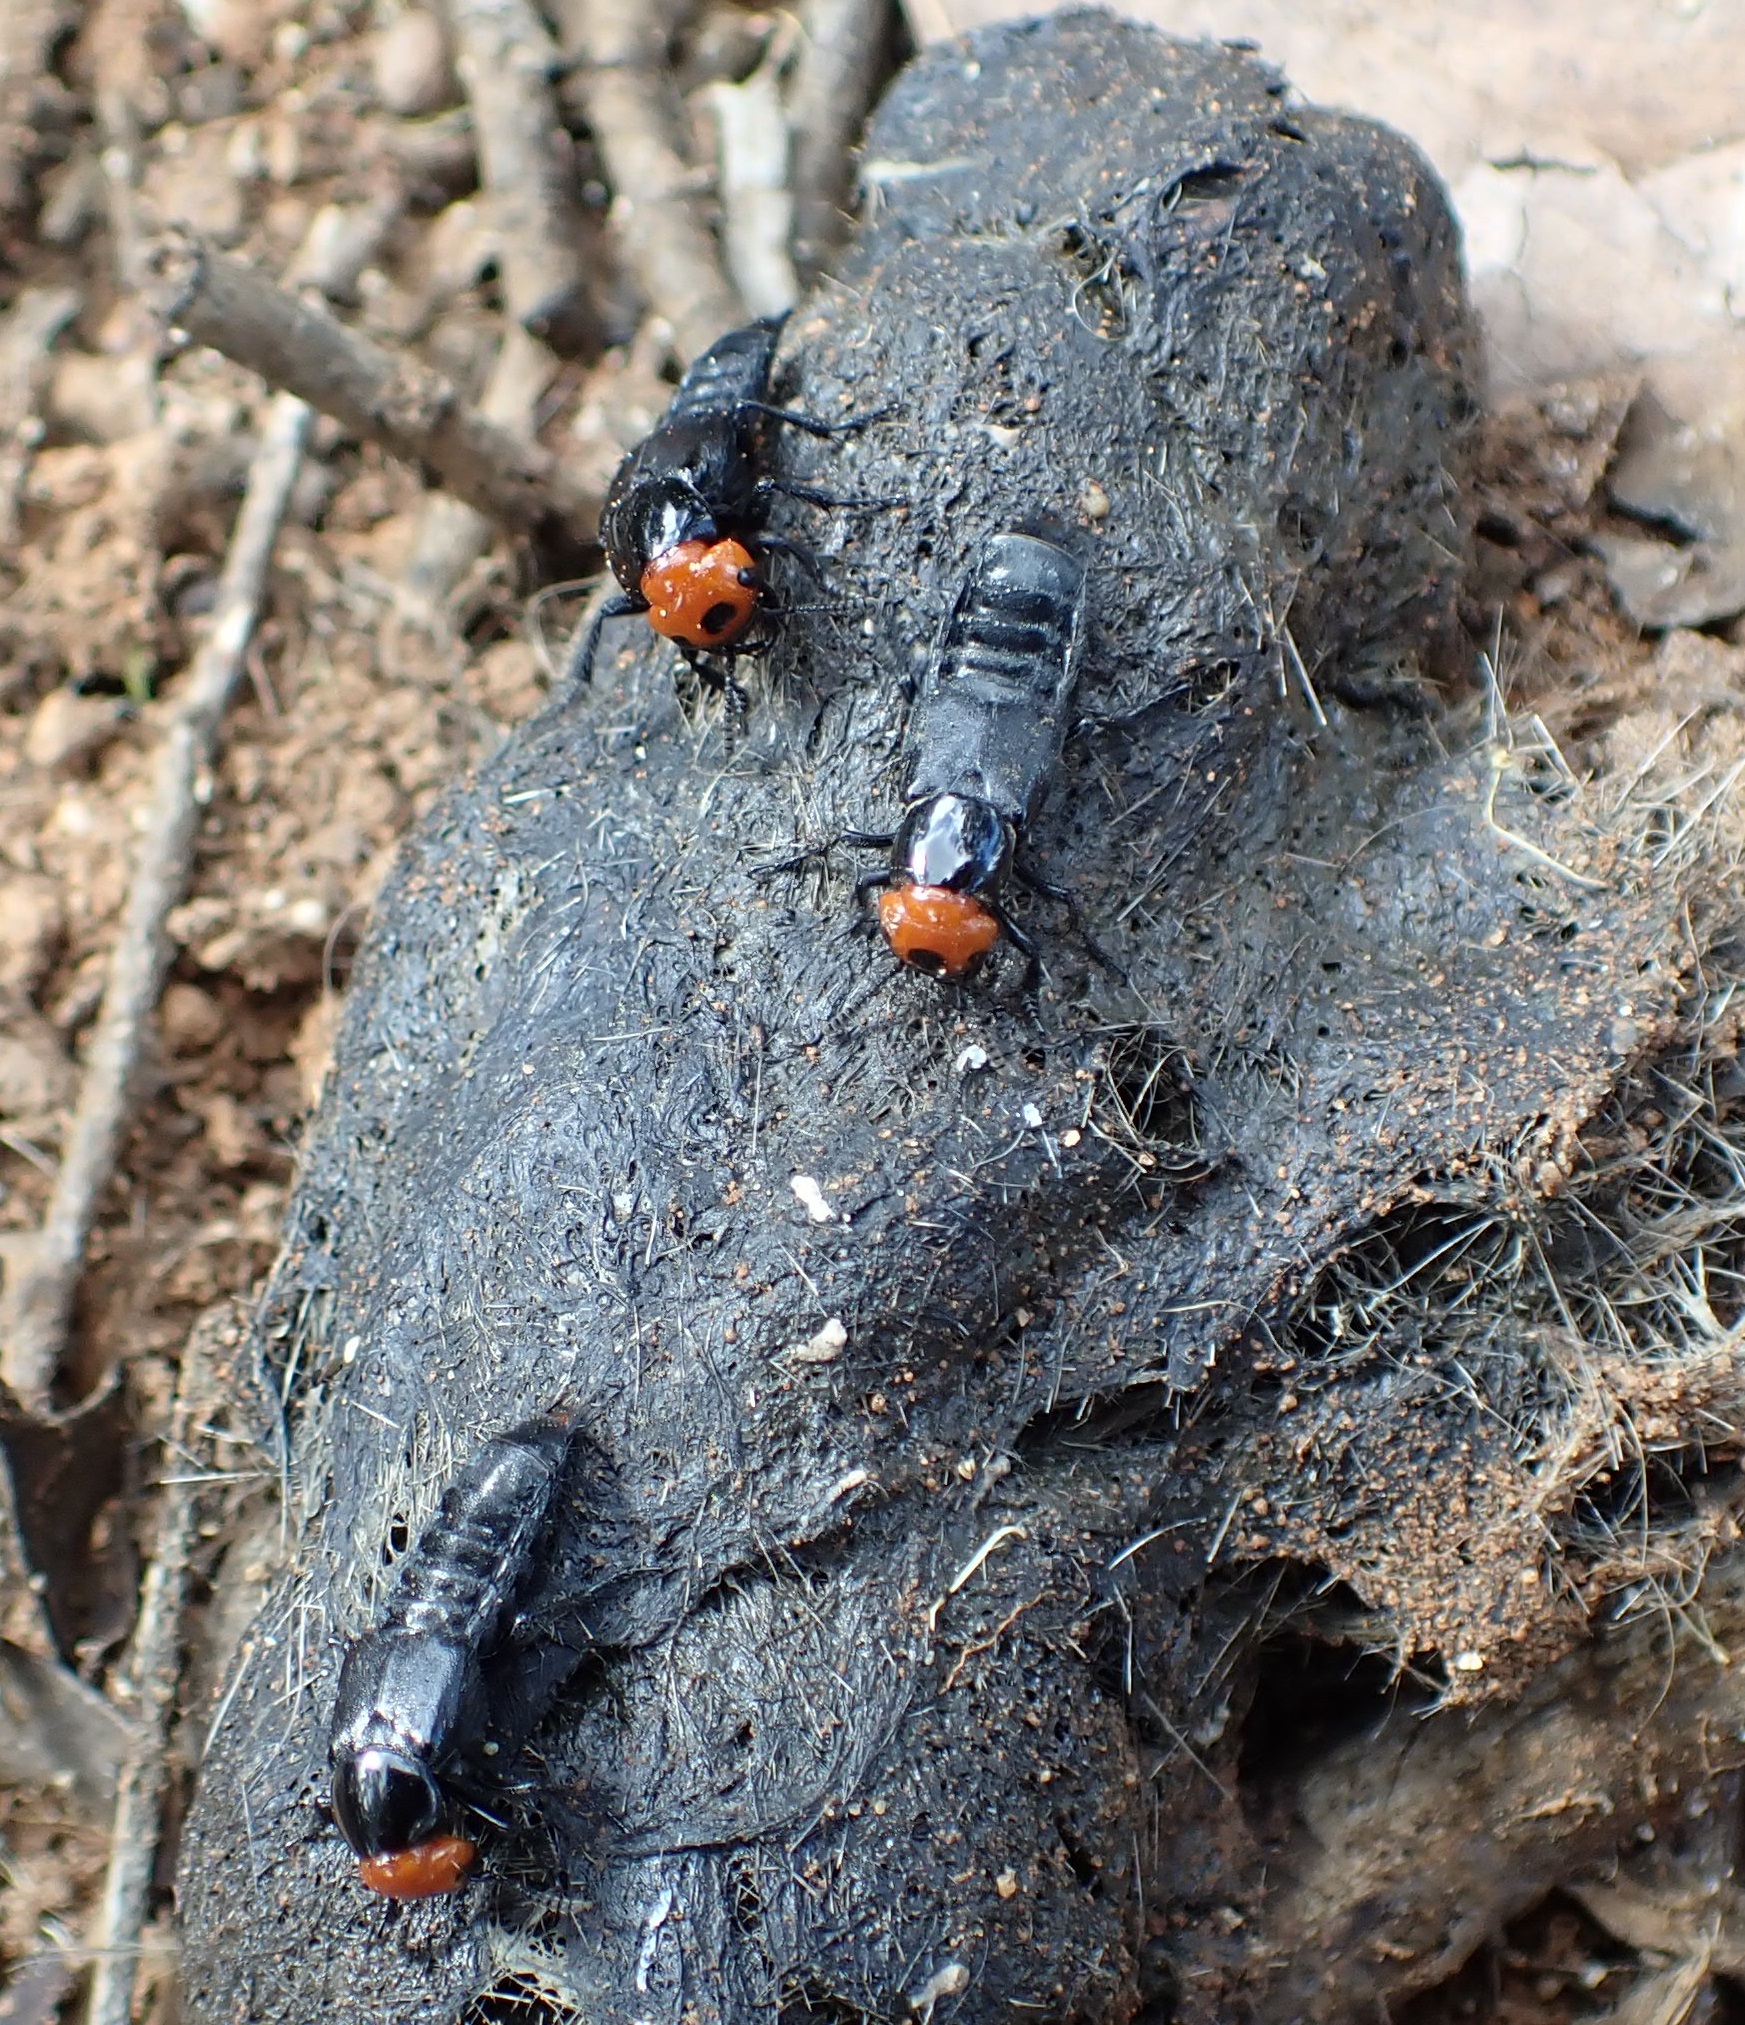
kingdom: Animalia
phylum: Arthropoda
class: Insecta
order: Coleoptera
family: Staphylinidae
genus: Creophilus
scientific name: Creophilus lanio
